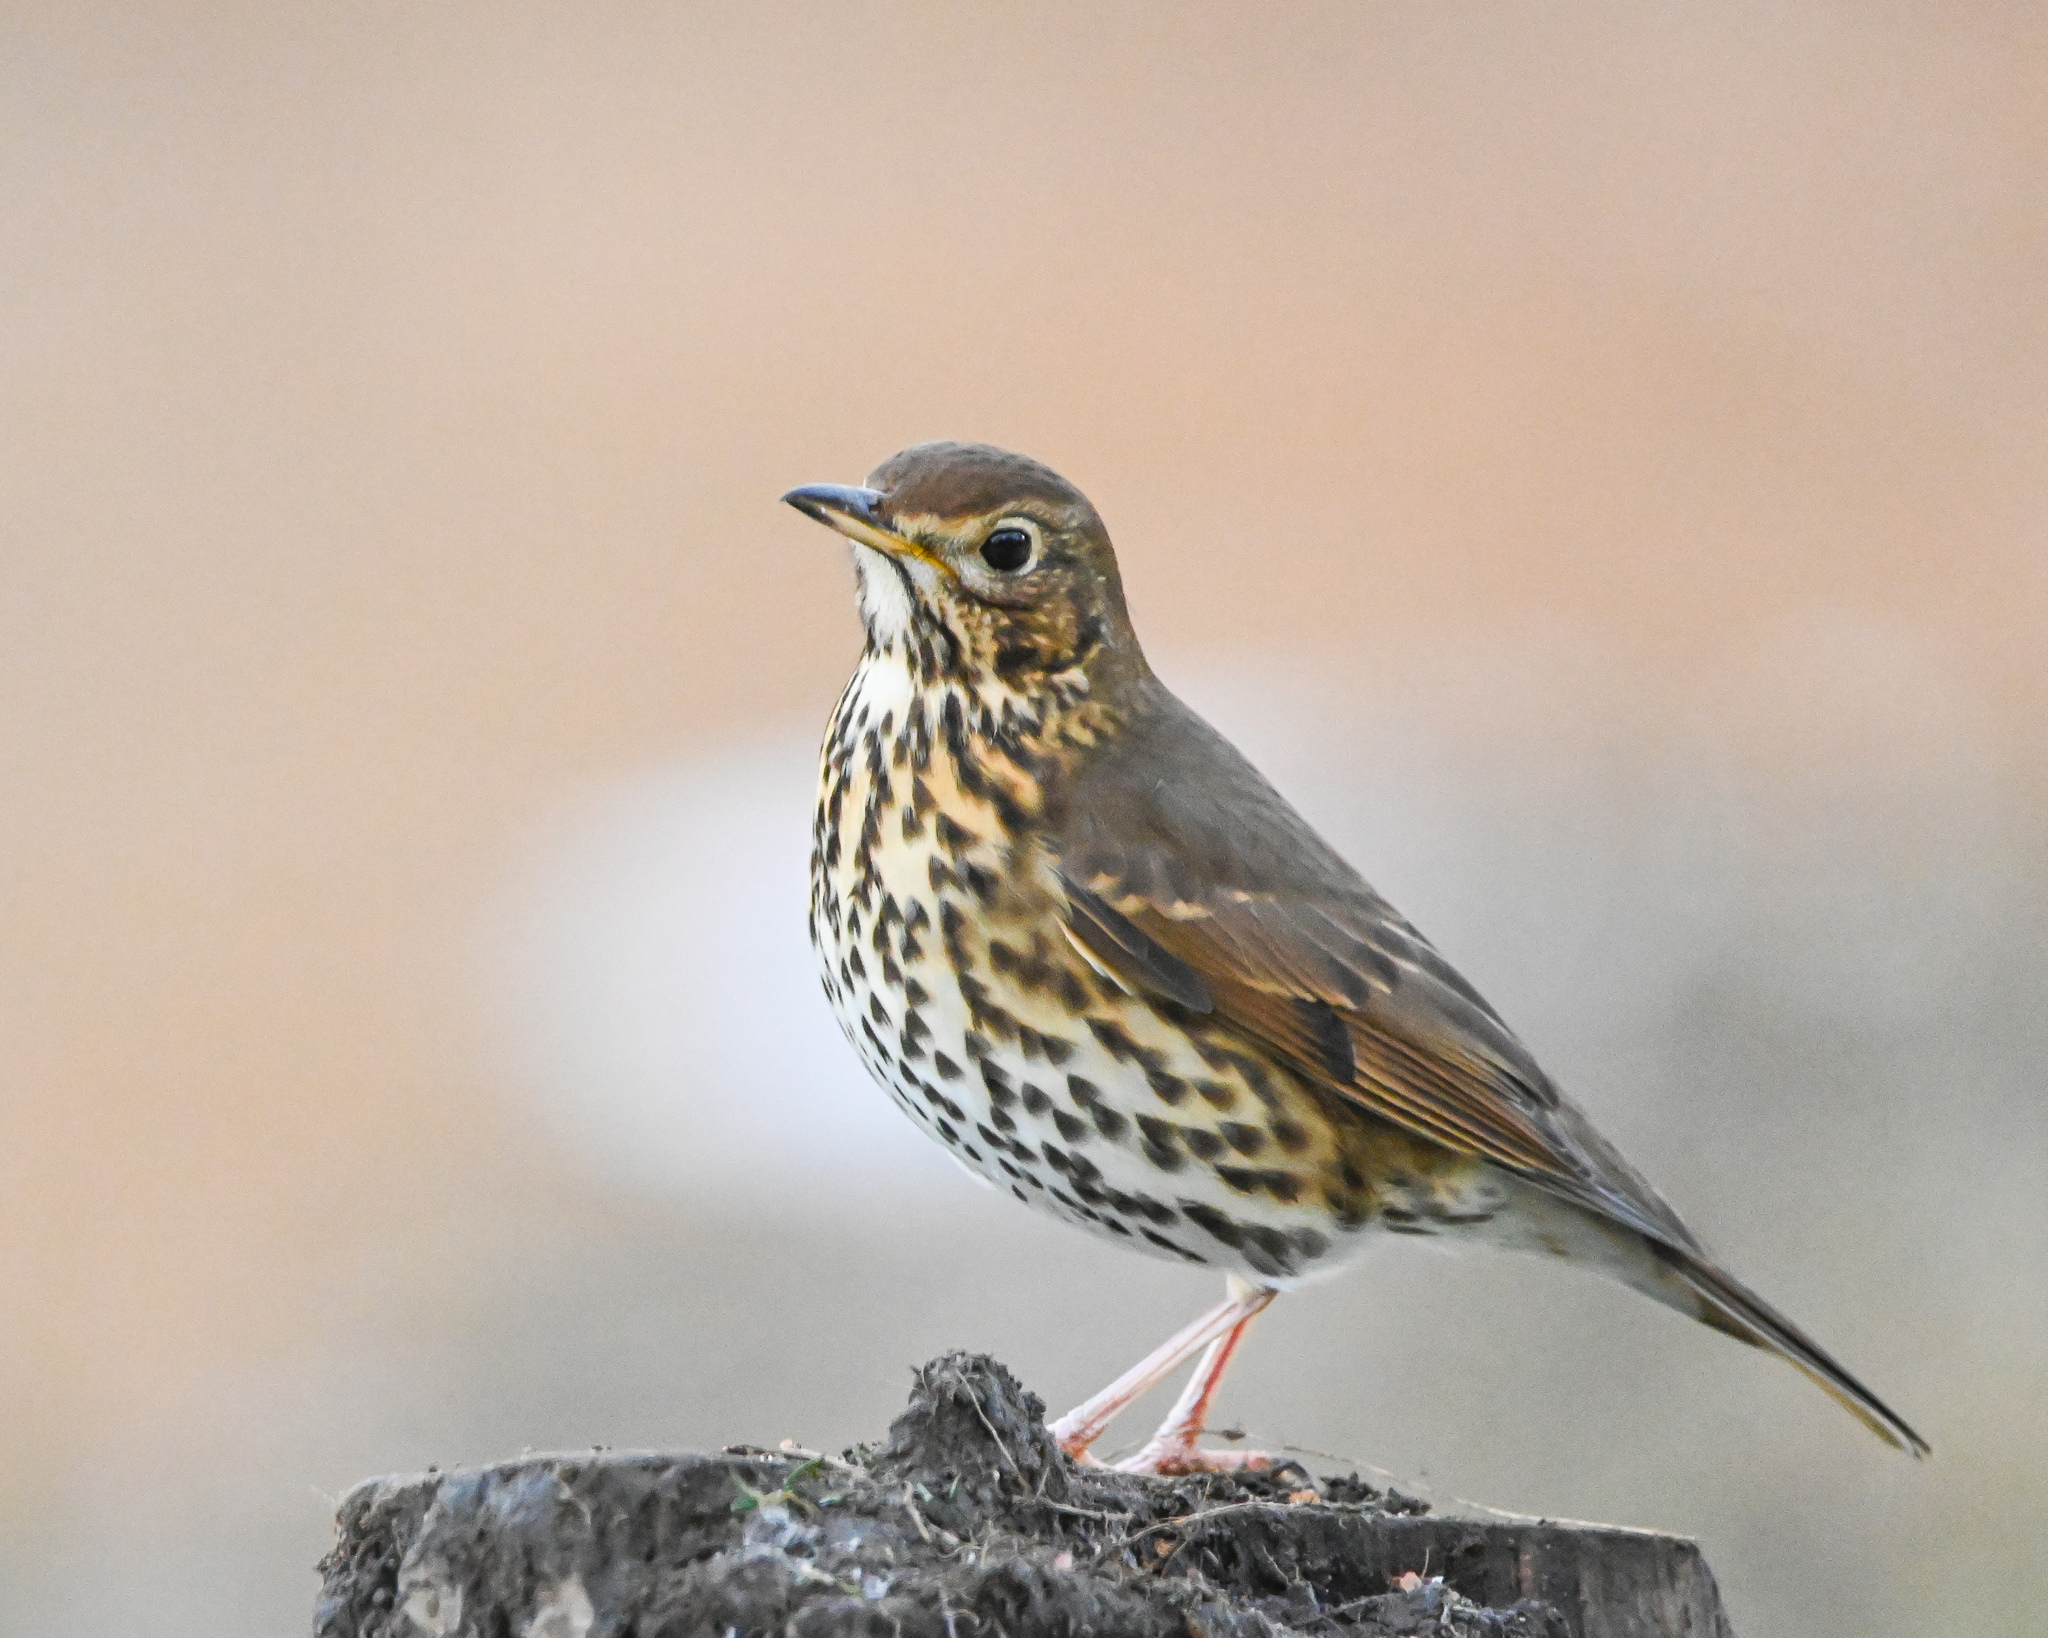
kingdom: Animalia
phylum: Chordata
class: Aves
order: Passeriformes
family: Turdidae
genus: Turdus
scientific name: Turdus philomelos
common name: Song thrush
